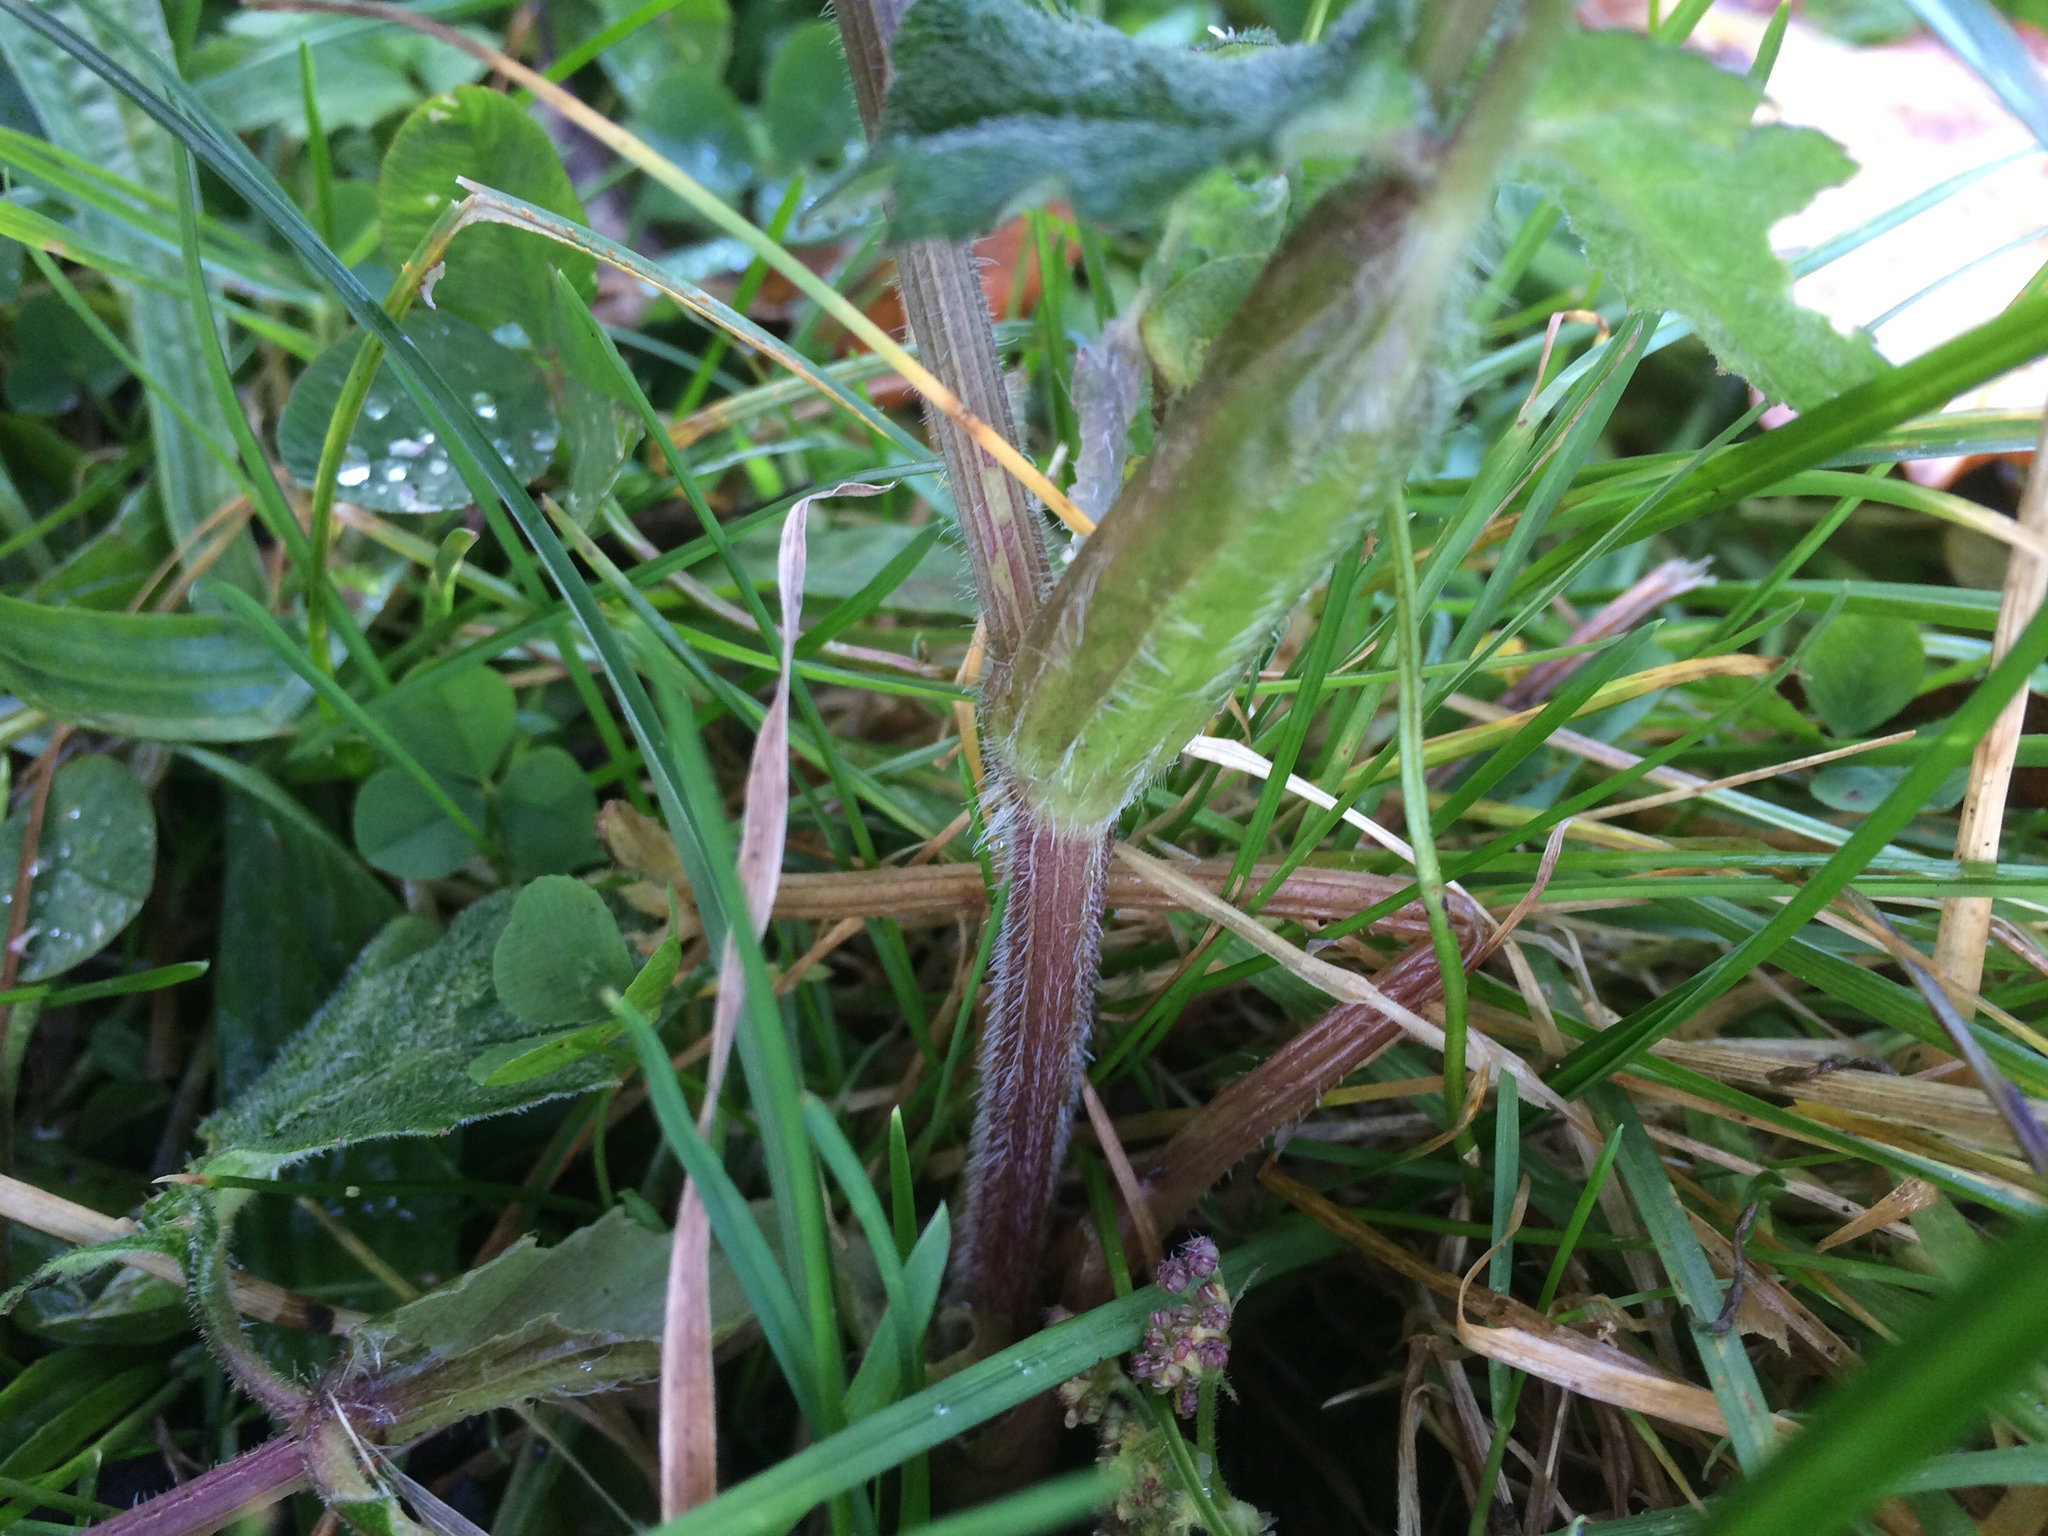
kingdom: Plantae
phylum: Tracheophyta
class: Magnoliopsida
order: Apiales
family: Apiaceae
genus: Heracleum
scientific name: Heracleum sphondylium
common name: Hogweed
